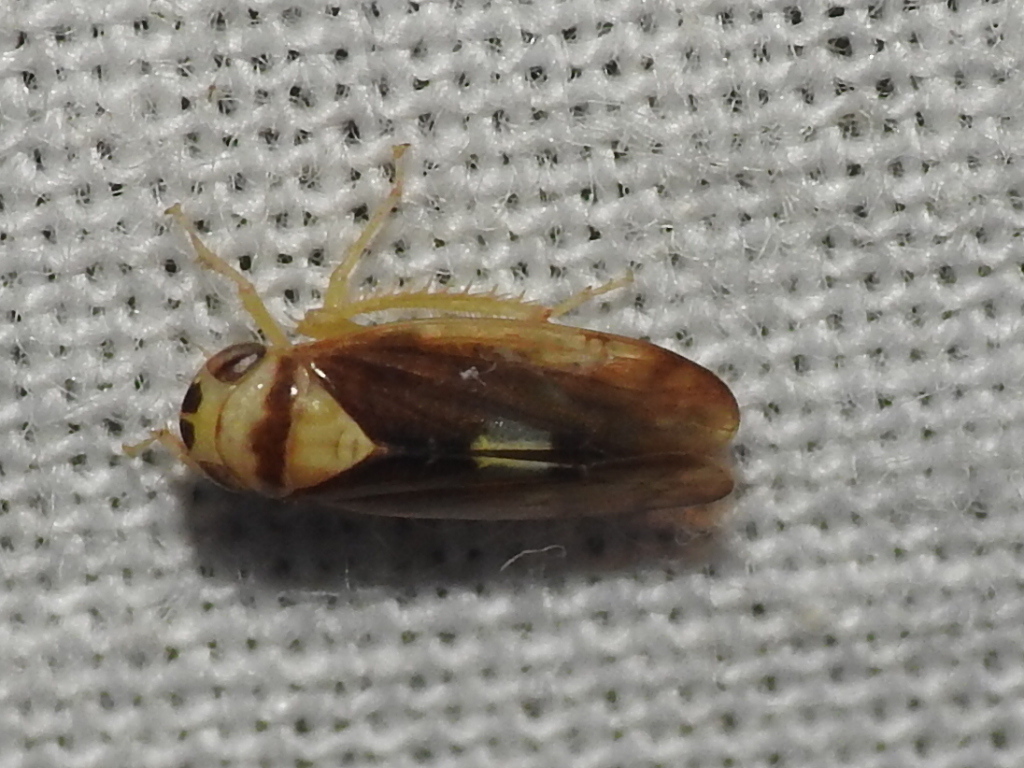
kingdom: Animalia
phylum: Arthropoda
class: Insecta
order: Hemiptera
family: Cicadellidae
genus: Eutettix
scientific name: Eutettix pictus
